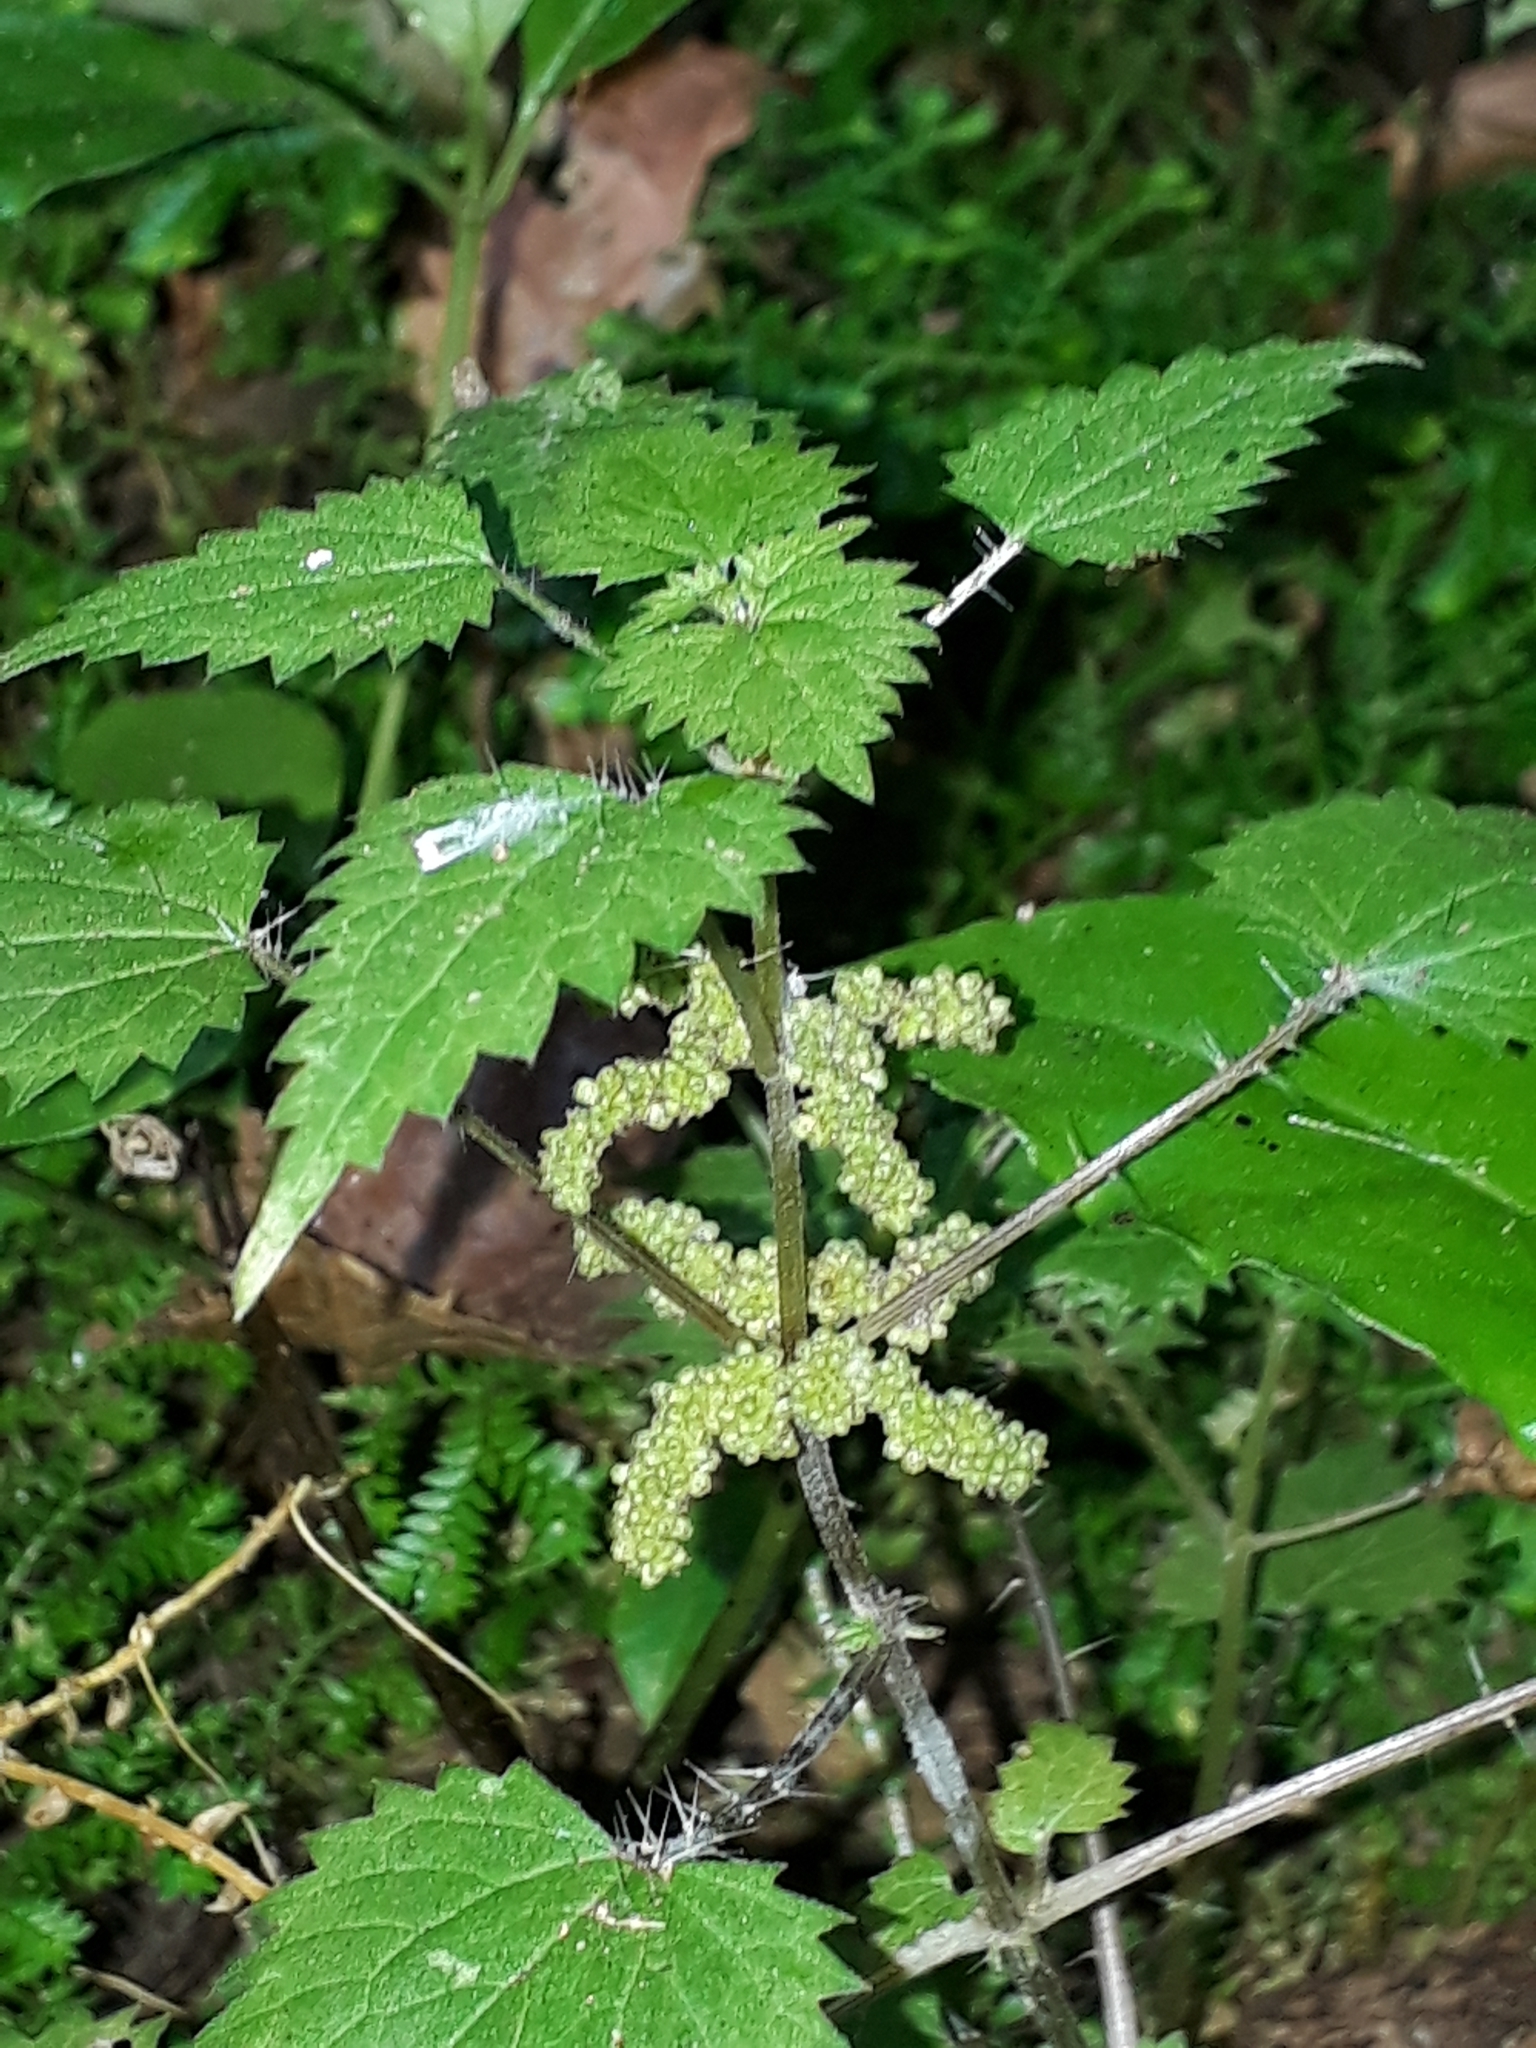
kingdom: Plantae
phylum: Tracheophyta
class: Magnoliopsida
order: Rosales
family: Urticaceae
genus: Urtica
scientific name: Urtica sykesii
